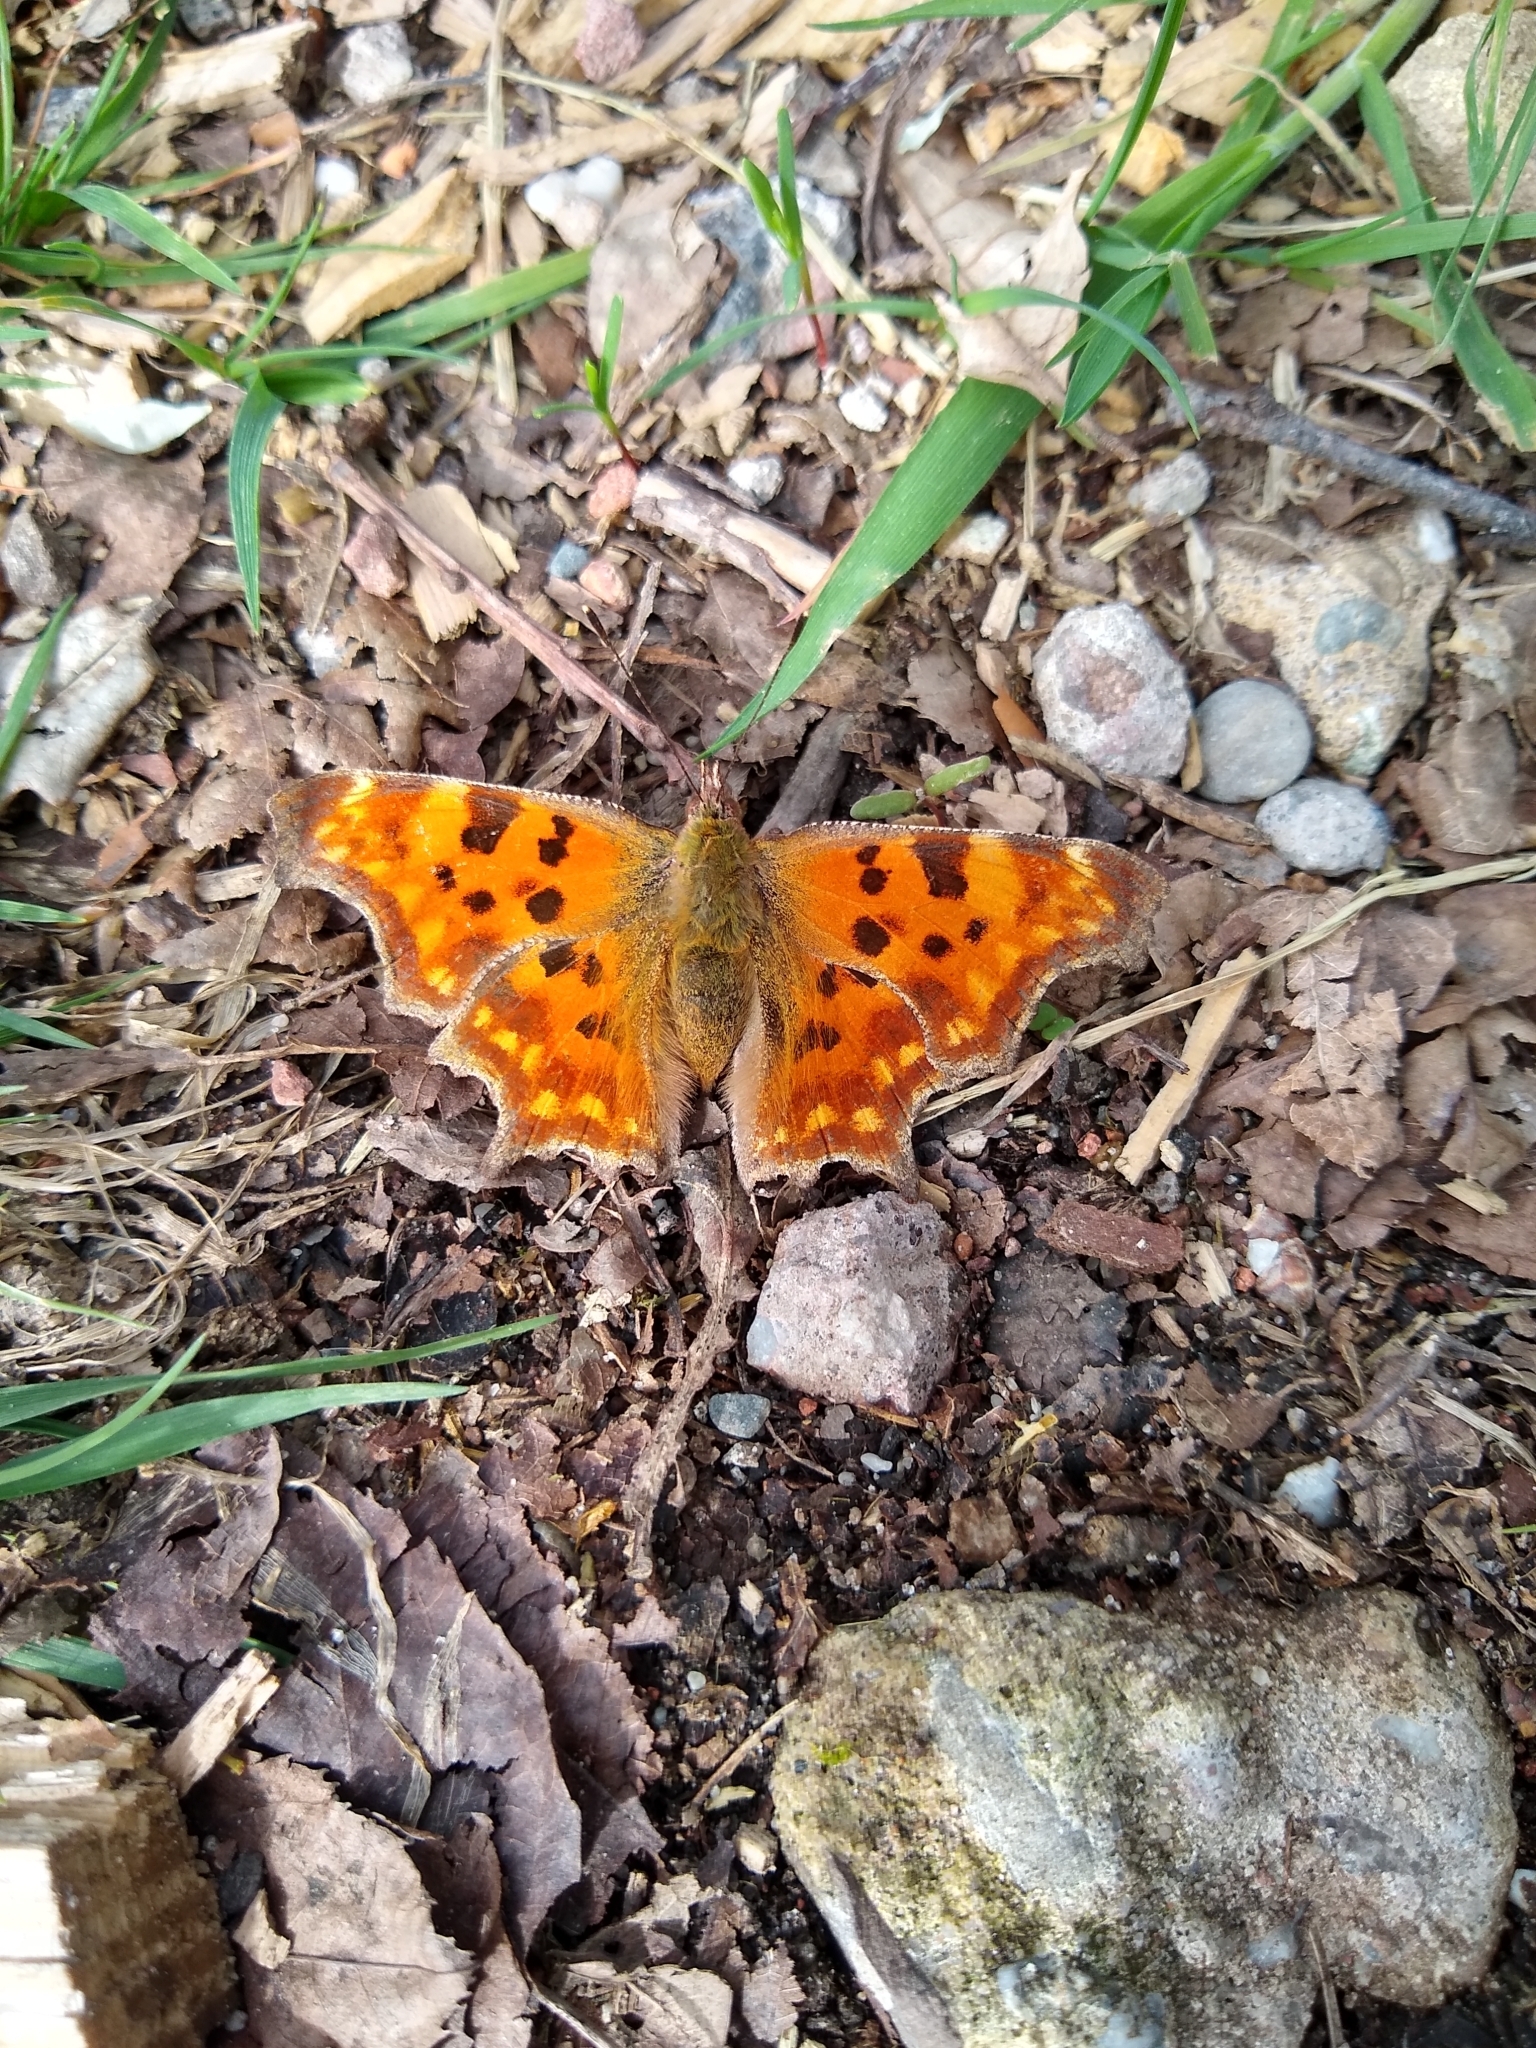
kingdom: Animalia
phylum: Arthropoda
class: Insecta
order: Lepidoptera
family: Nymphalidae
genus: Polygonia
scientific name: Polygonia c-album
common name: Comma
